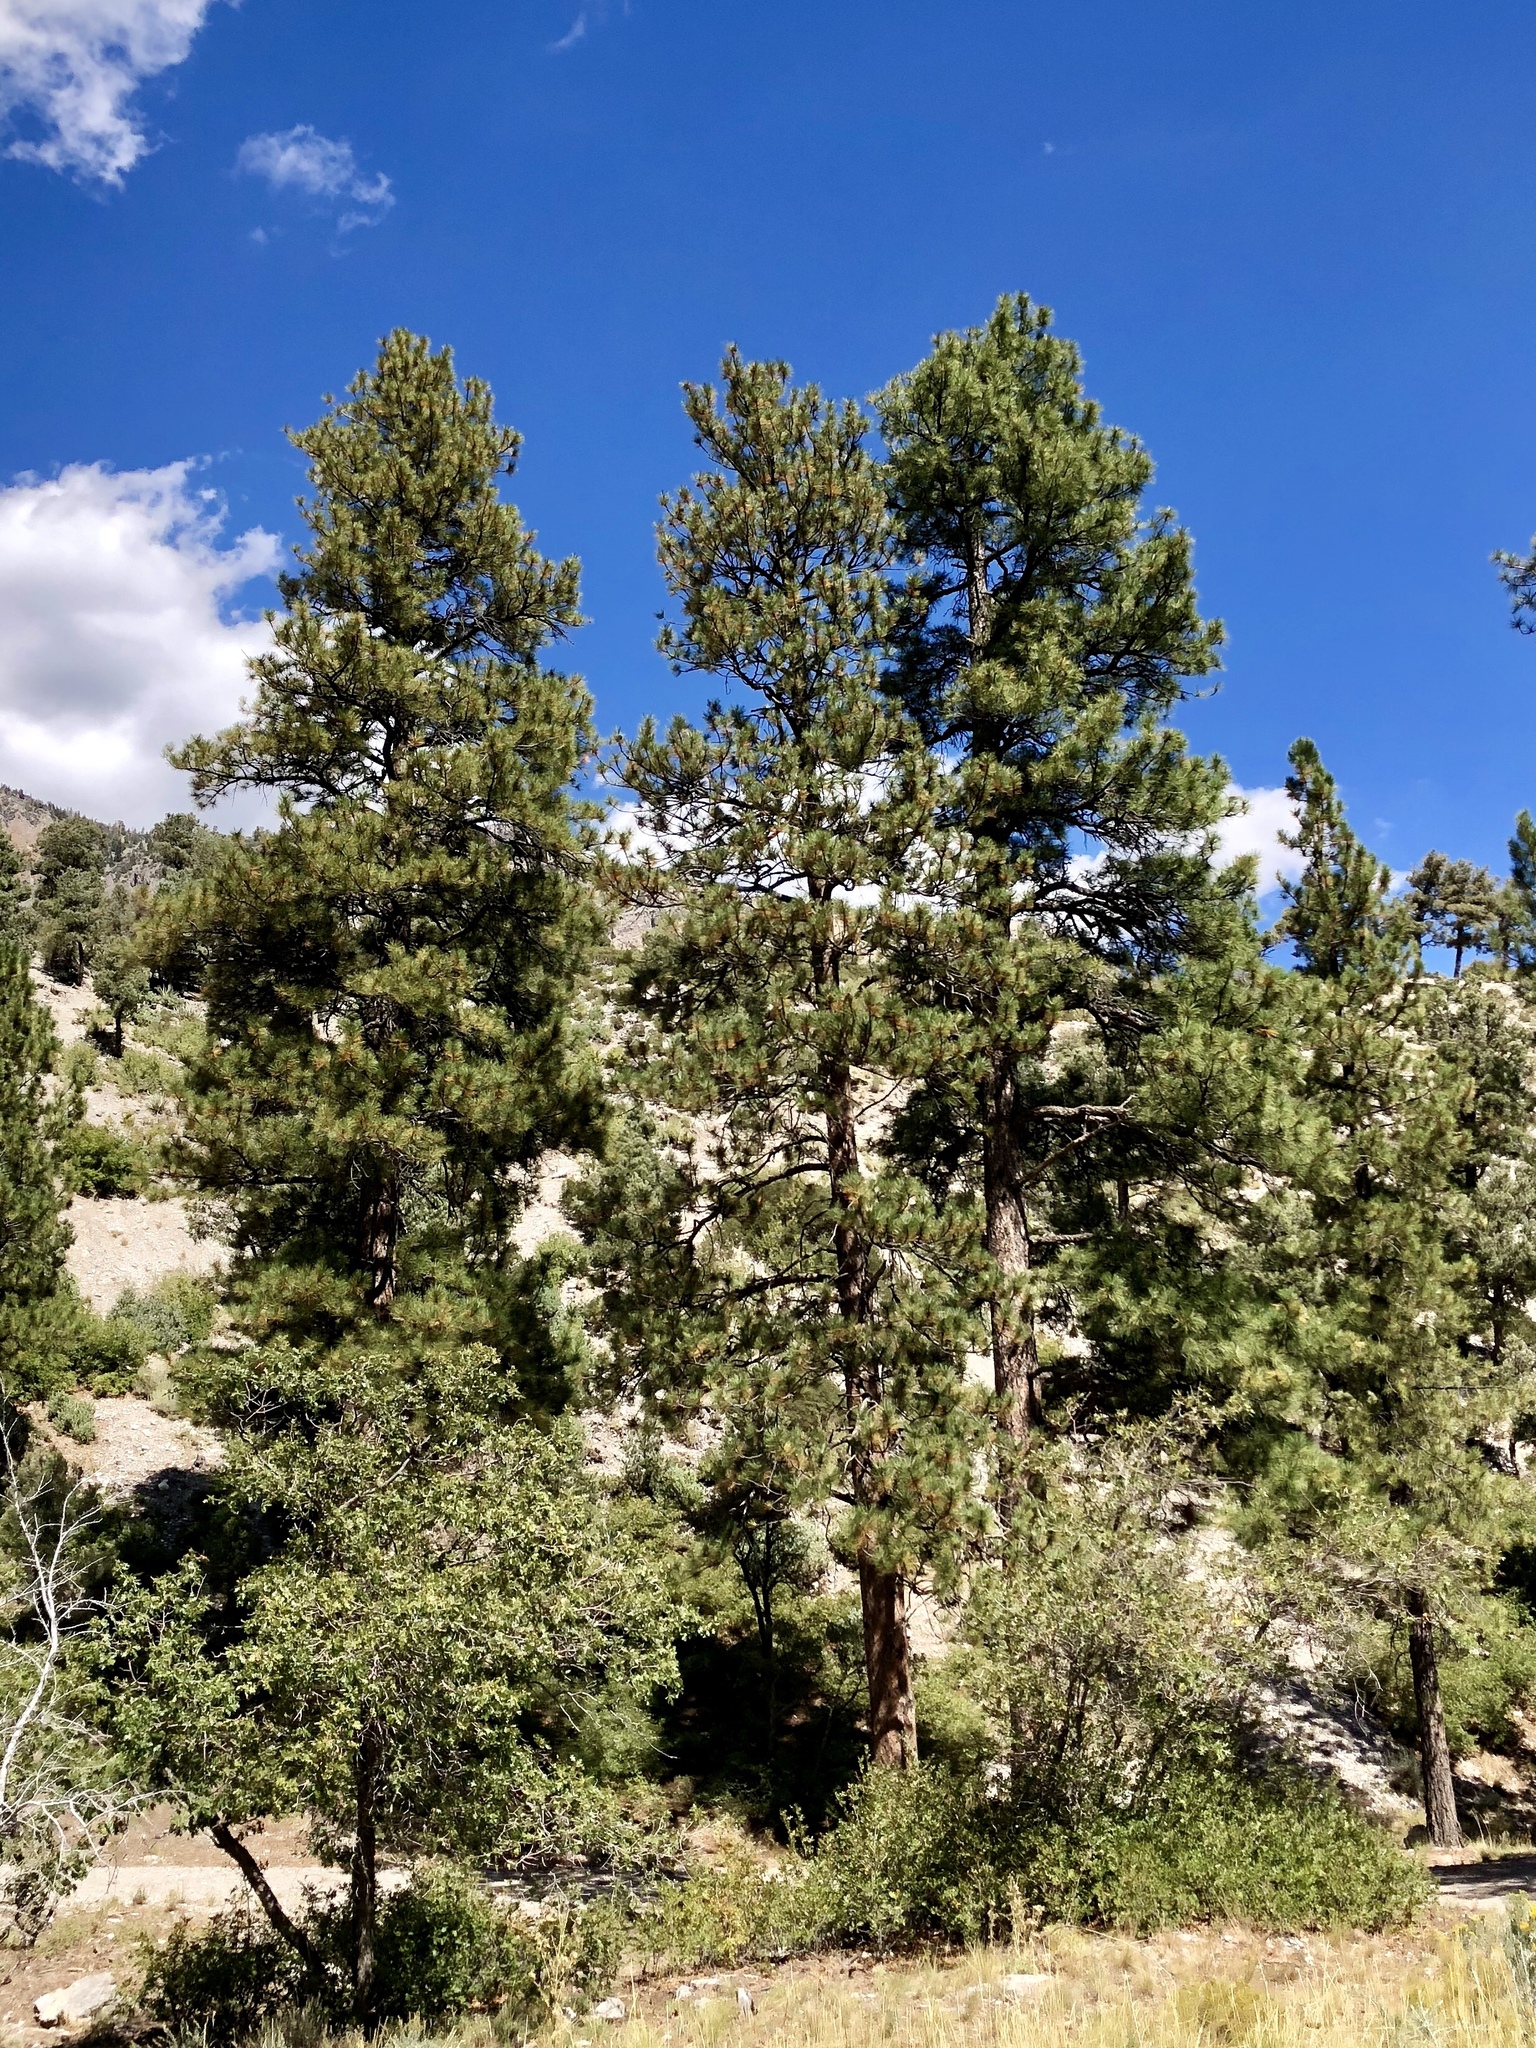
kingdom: Plantae
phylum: Tracheophyta
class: Pinopsida
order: Pinales
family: Pinaceae
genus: Pinus
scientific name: Pinus ponderosa
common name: Western yellow-pine
